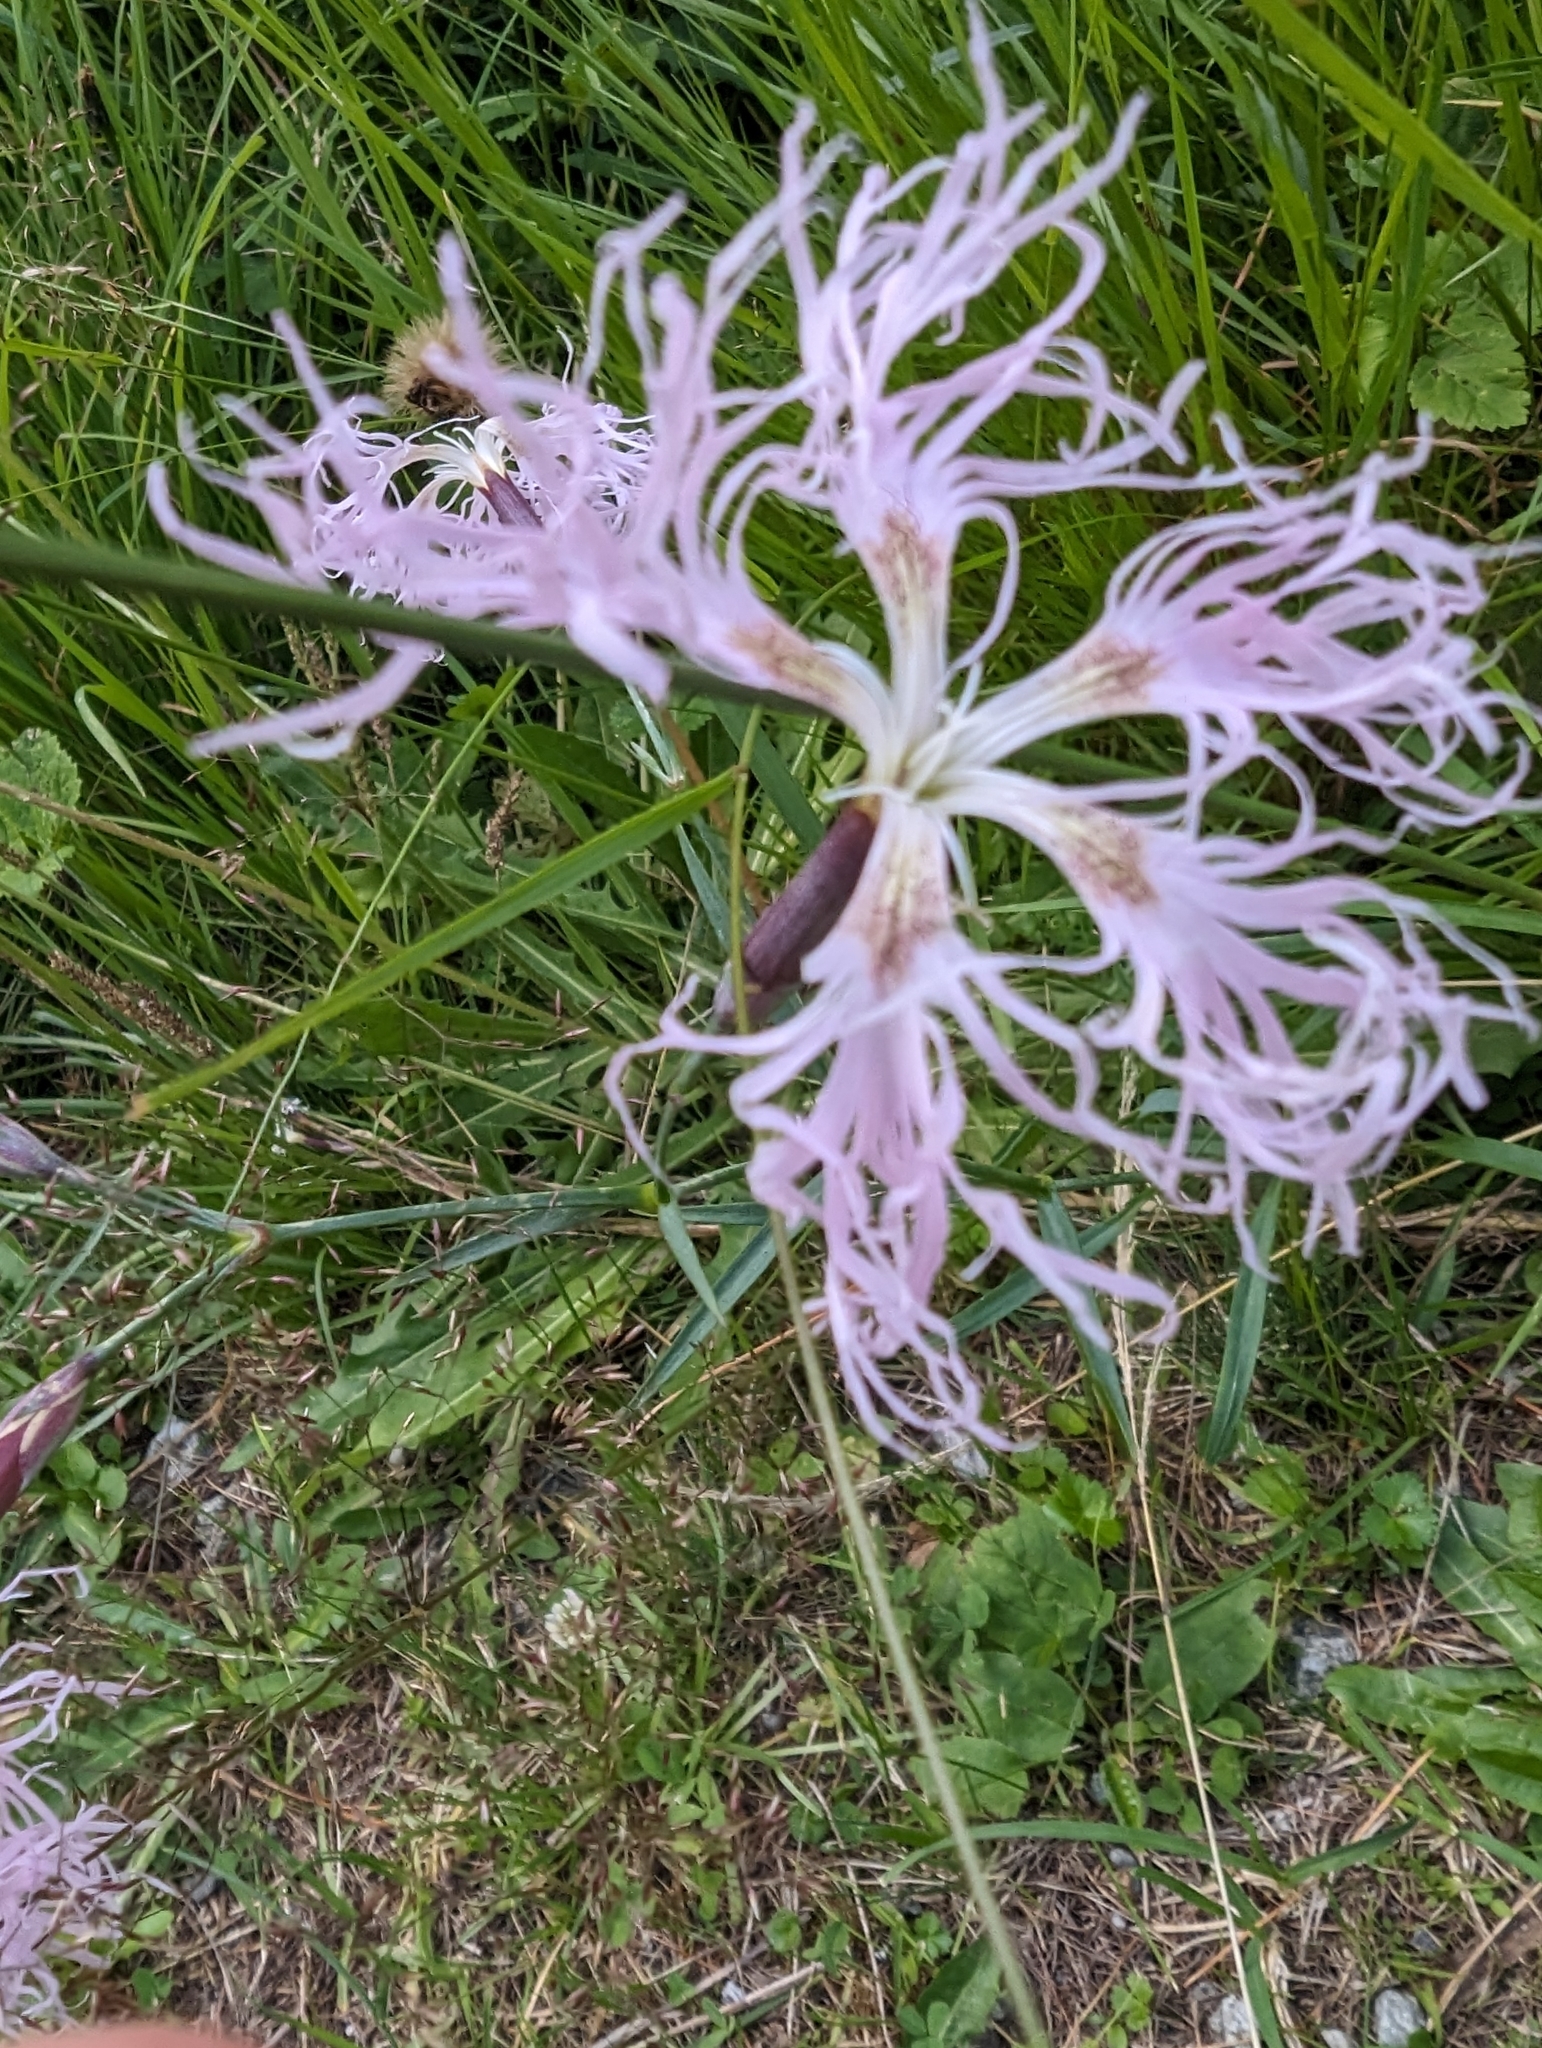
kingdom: Plantae
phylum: Tracheophyta
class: Magnoliopsida
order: Caryophyllales
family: Caryophyllaceae
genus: Dianthus
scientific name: Dianthus superbus
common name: Fringed pink
